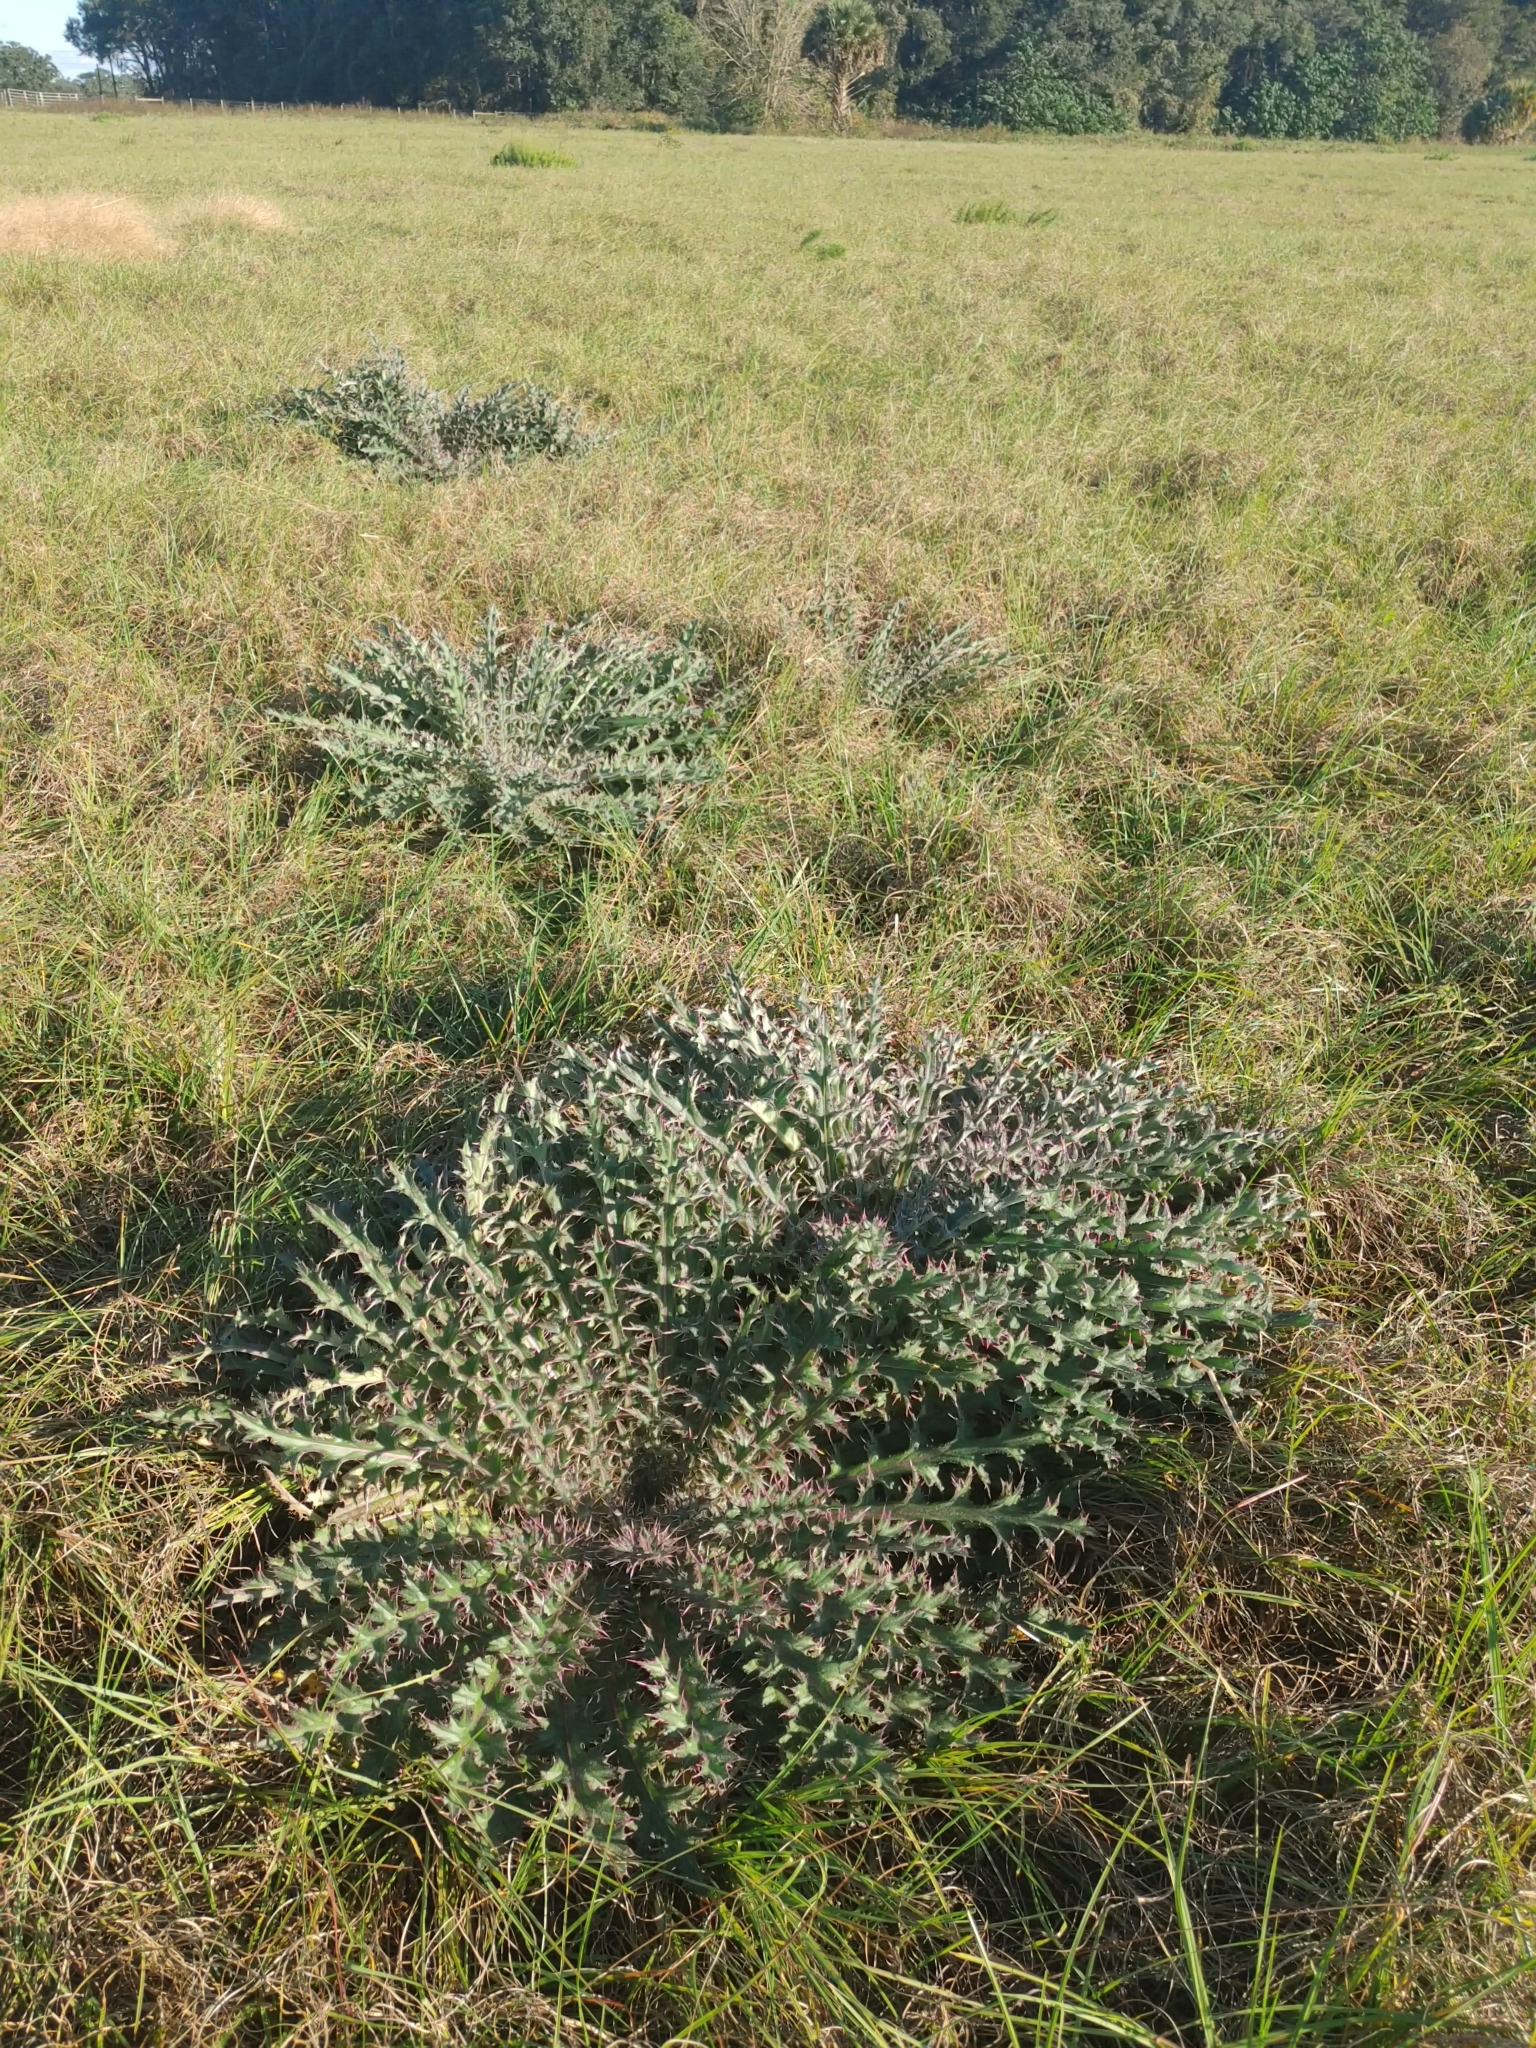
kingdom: Plantae
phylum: Tracheophyta
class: Magnoliopsida
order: Asterales
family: Asteraceae
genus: Cirsium
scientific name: Cirsium horridulum
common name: Bristly thistle
